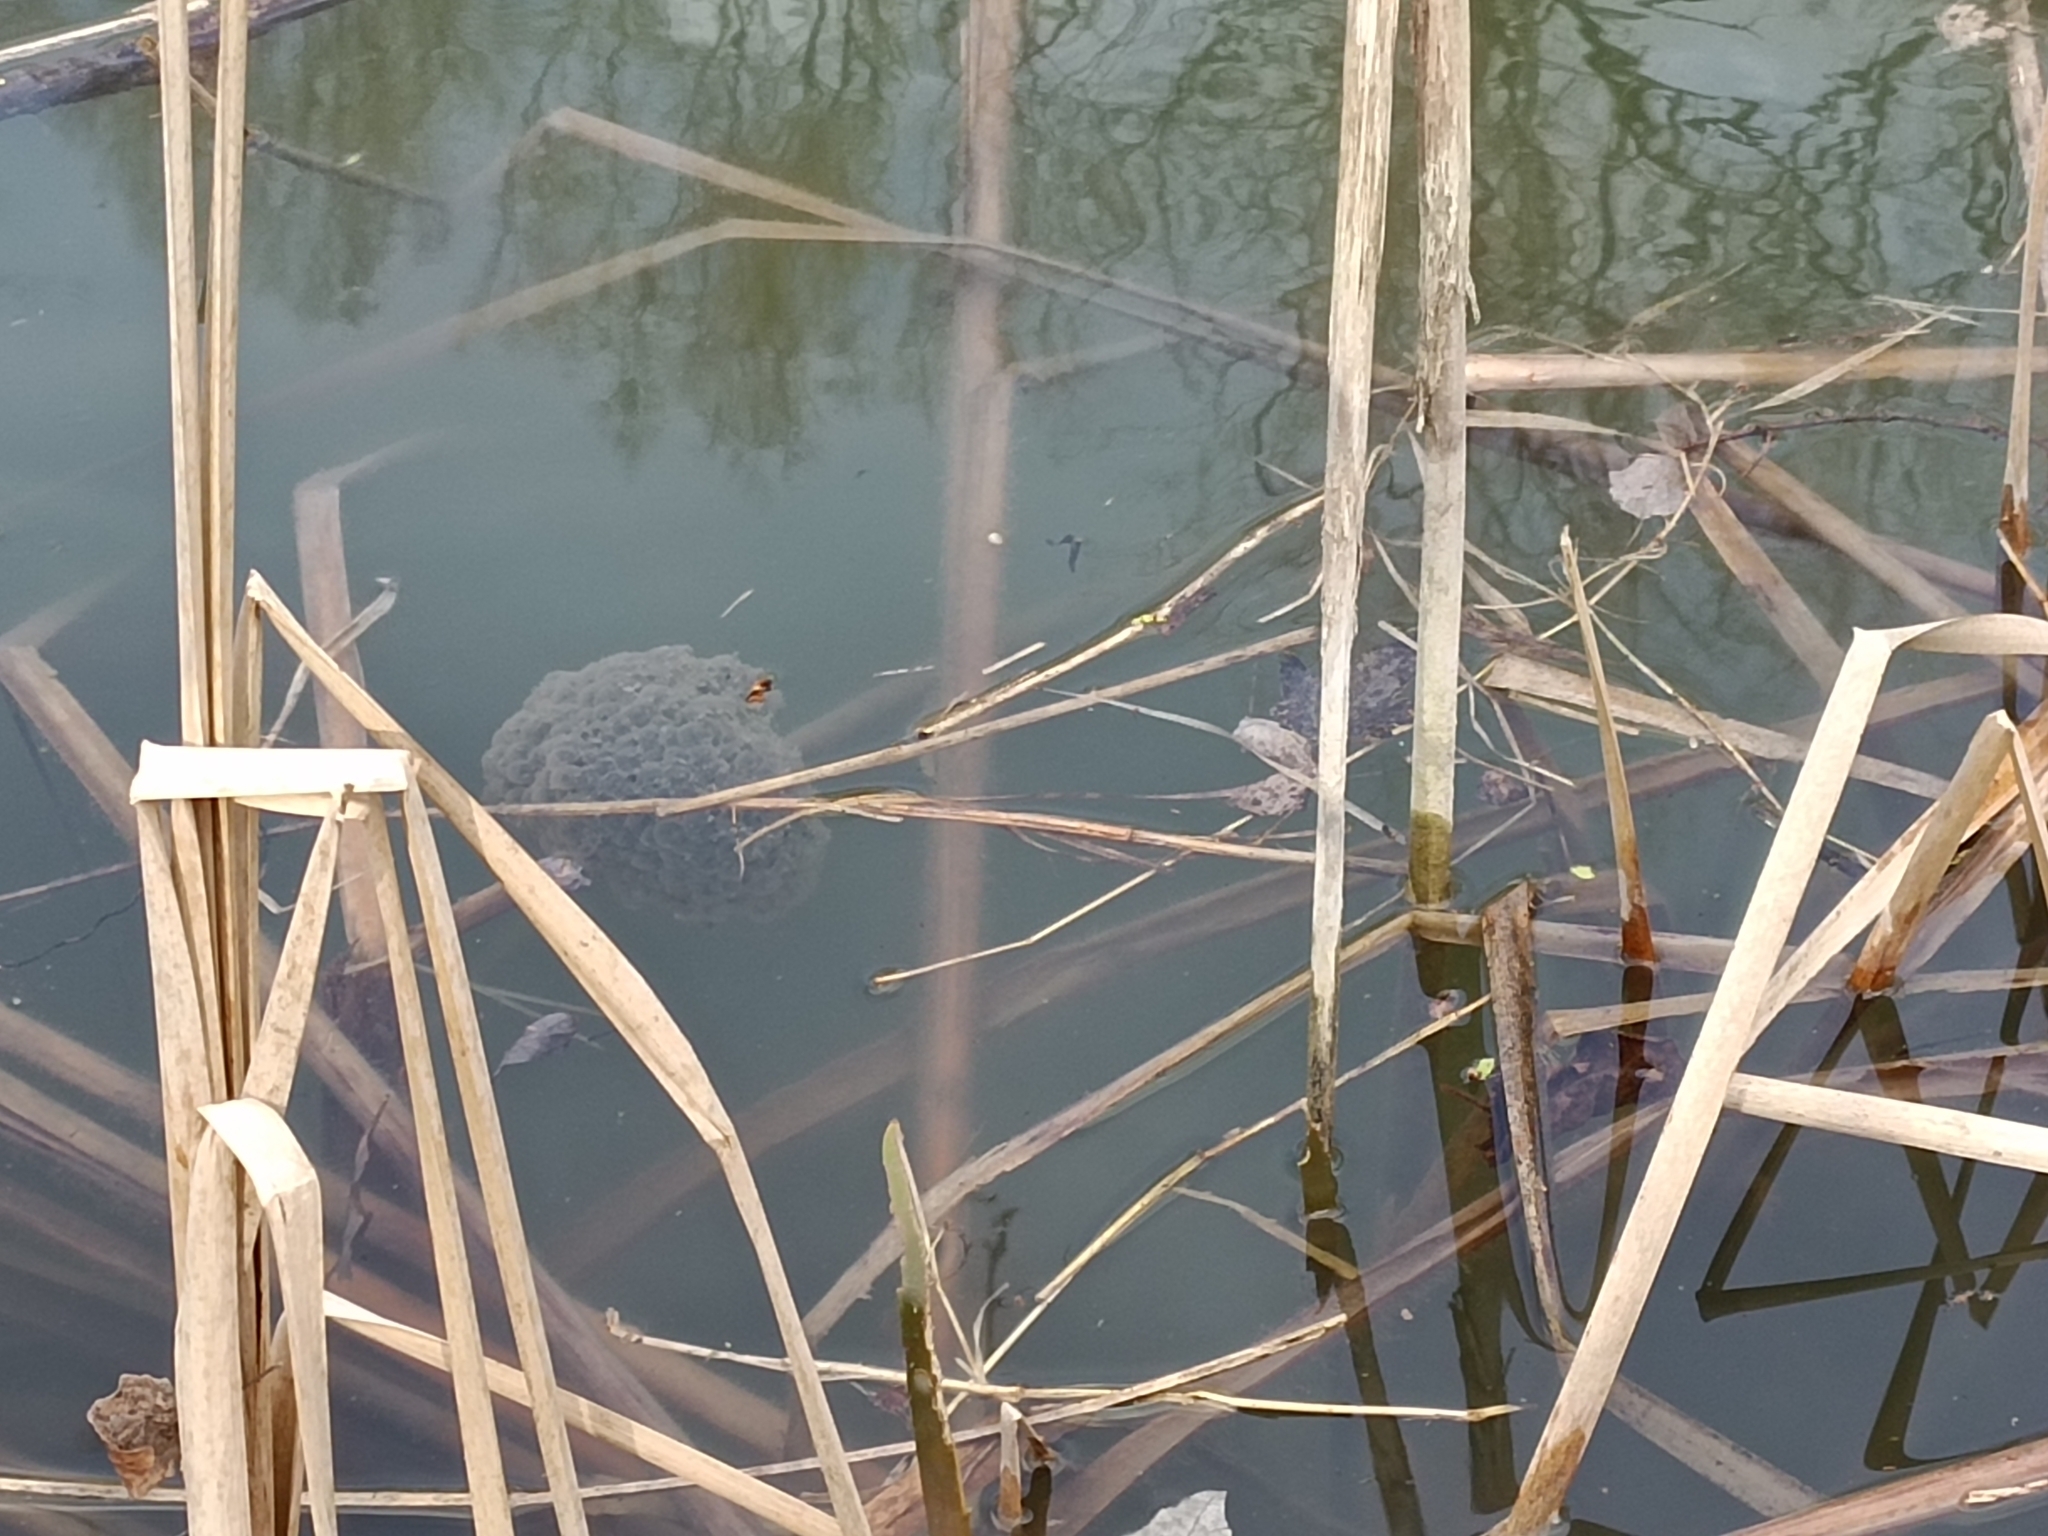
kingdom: Animalia
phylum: Chordata
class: Amphibia
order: Anura
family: Ranidae
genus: Rana
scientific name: Rana dalmatina
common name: Agile frog
